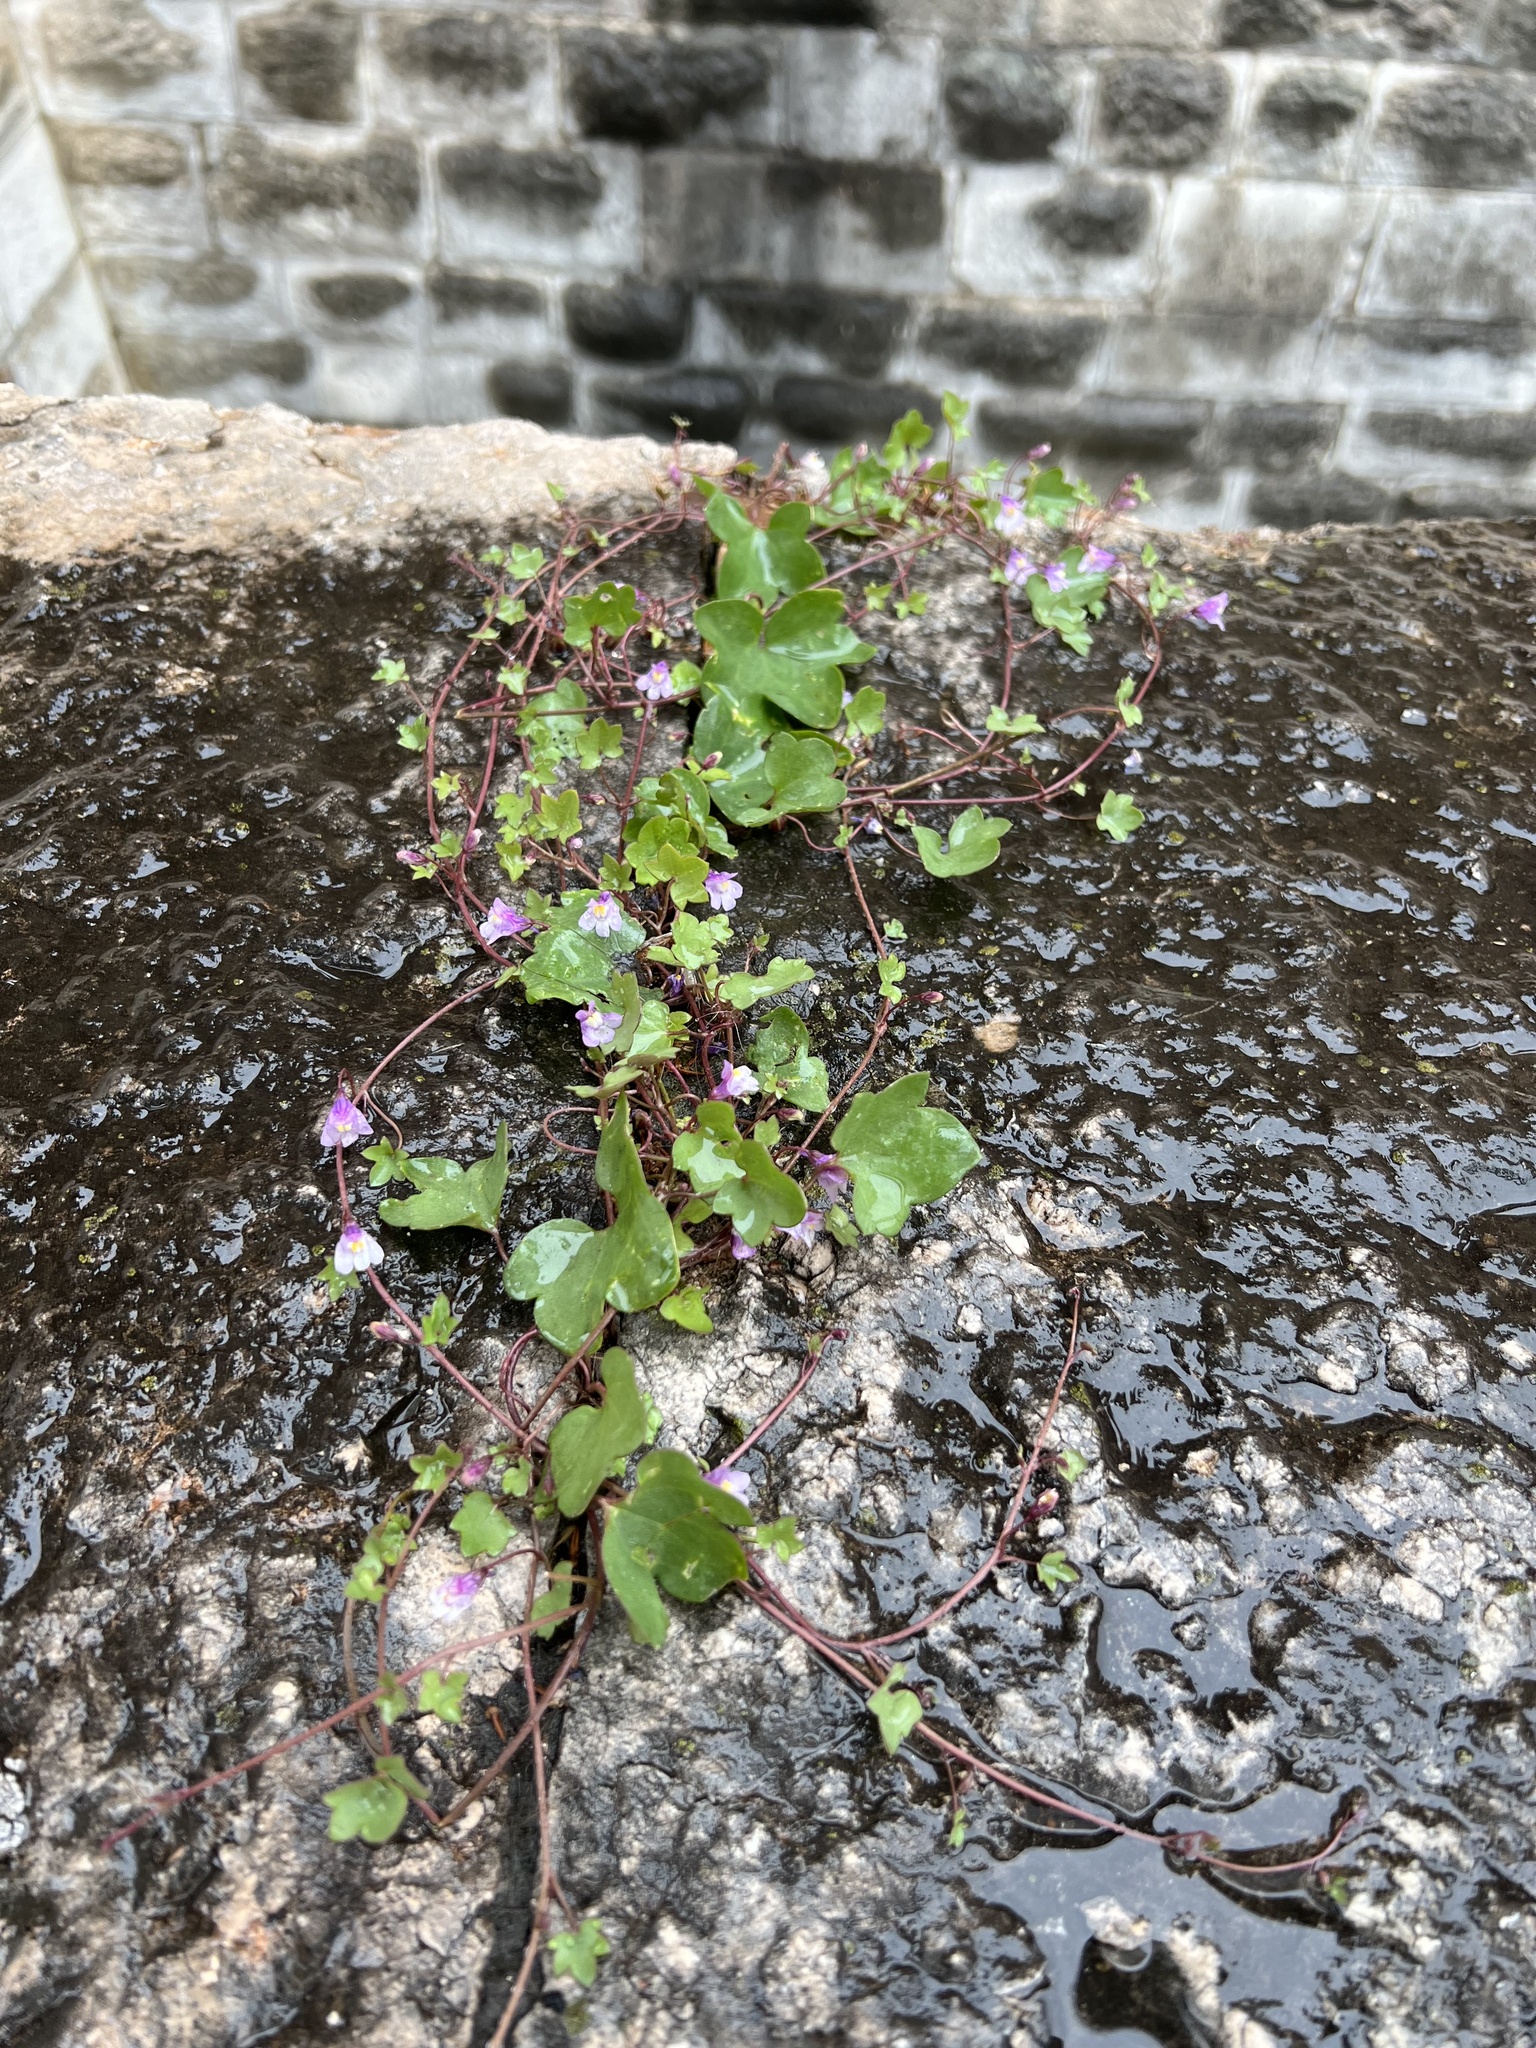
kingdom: Plantae
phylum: Tracheophyta
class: Magnoliopsida
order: Lamiales
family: Plantaginaceae
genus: Cymbalaria
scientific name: Cymbalaria muralis
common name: Ivy-leaved toadflax
